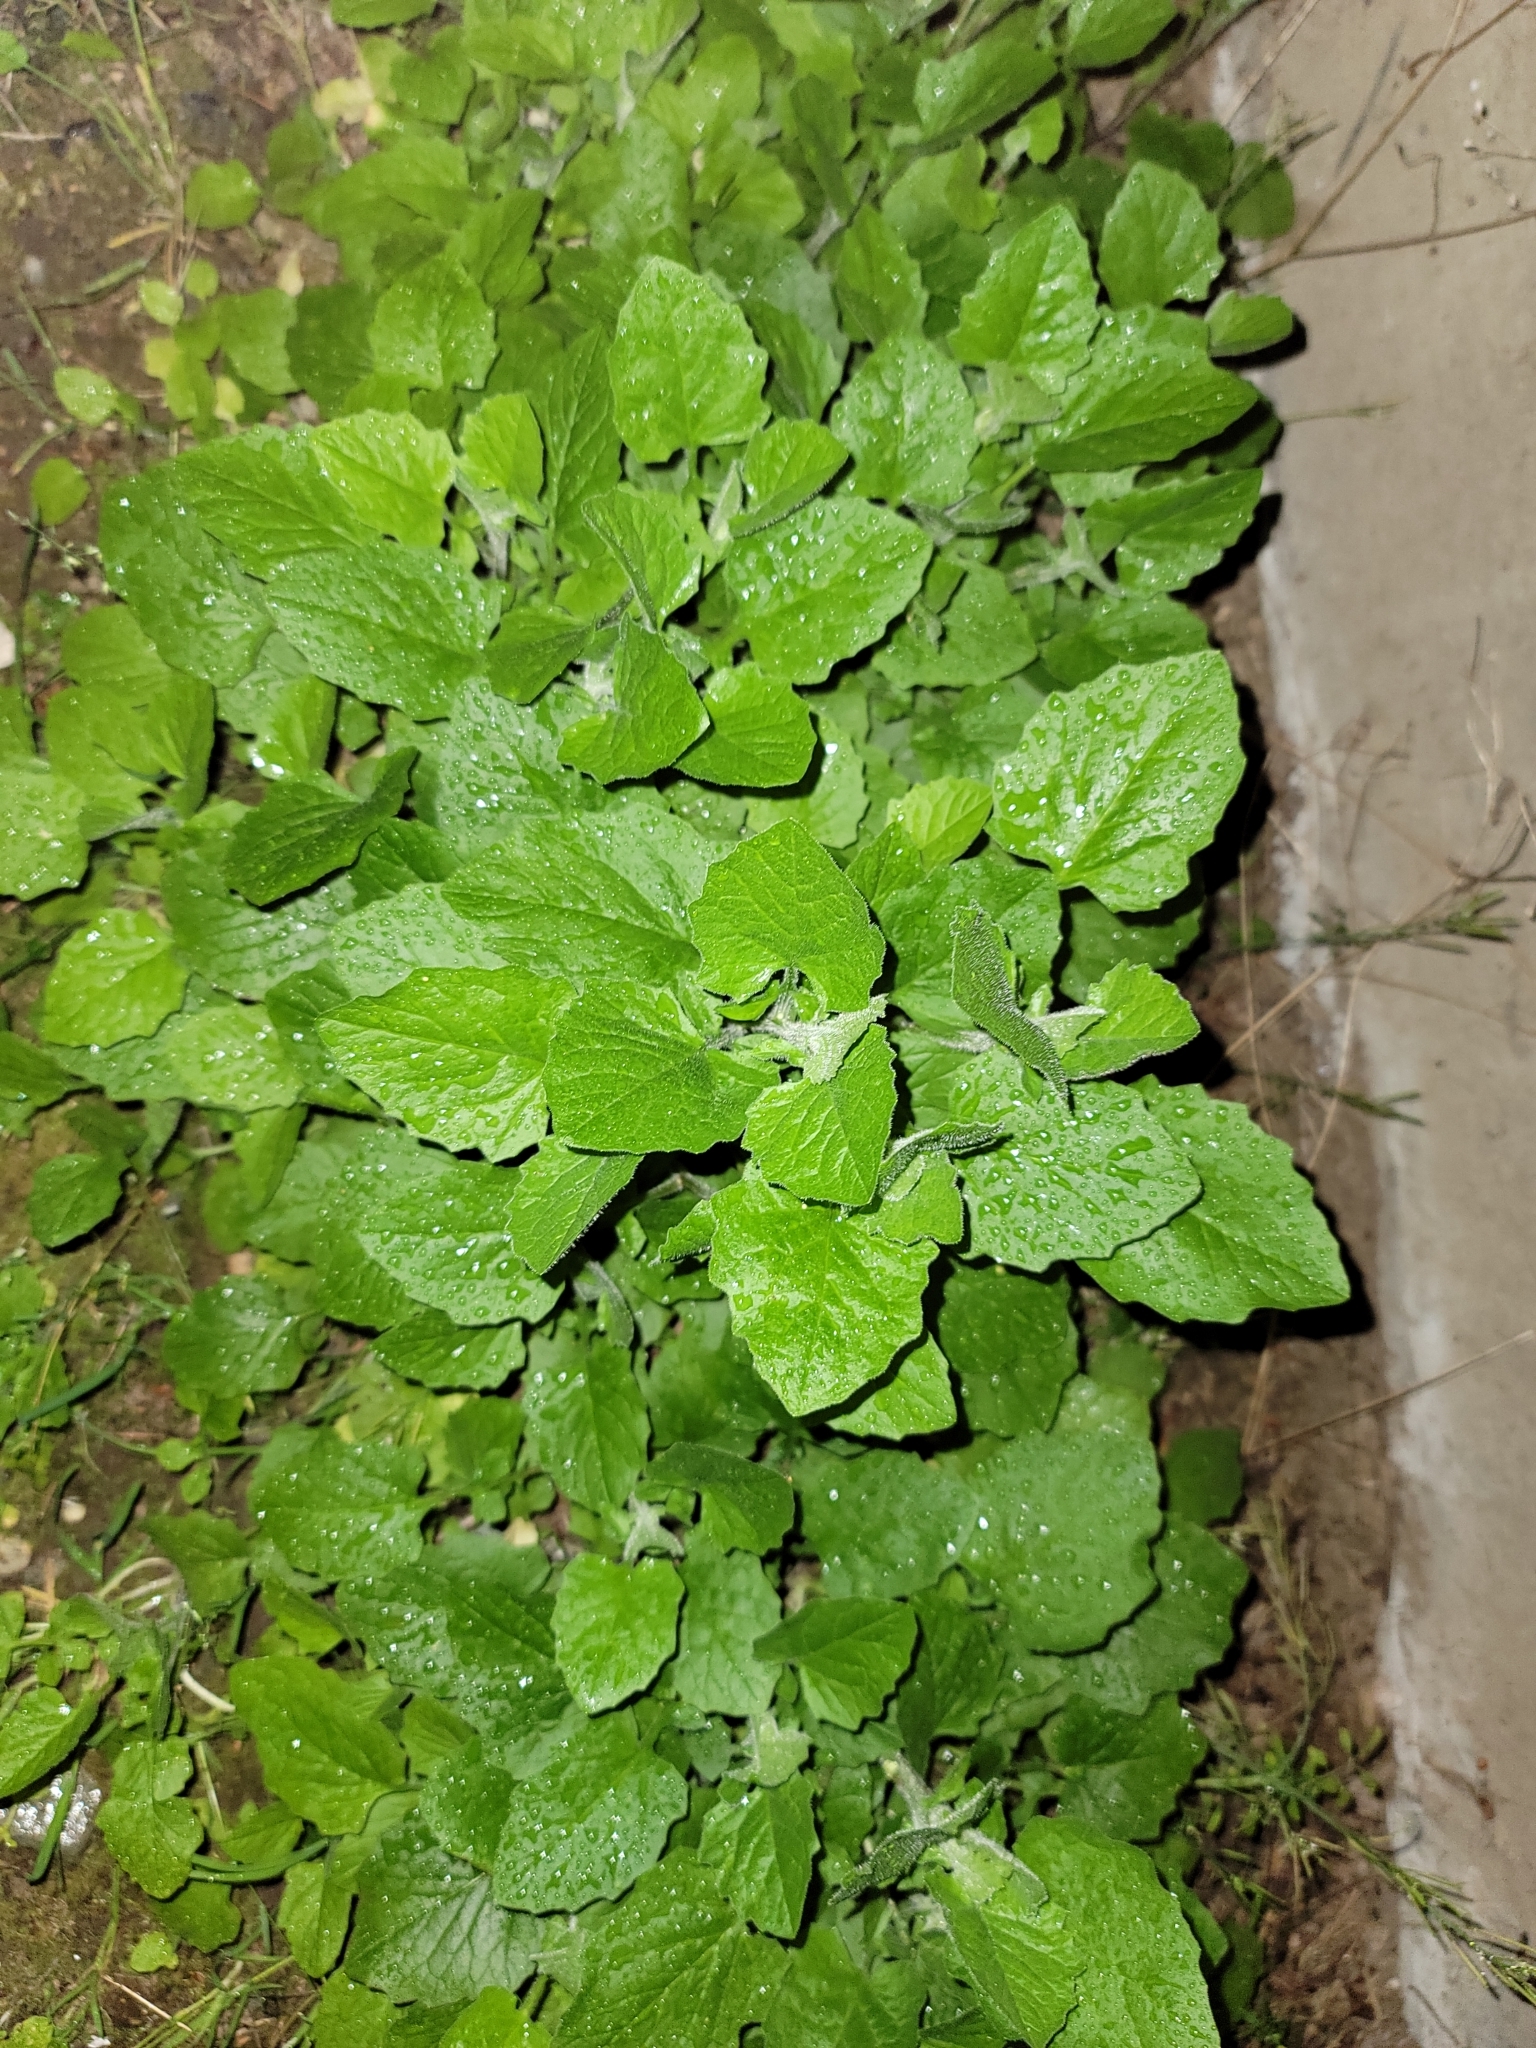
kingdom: Plantae
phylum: Tracheophyta
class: Magnoliopsida
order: Asterales
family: Asteraceae
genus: Adenocaulon
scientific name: Adenocaulon bicolor
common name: Trailplant
